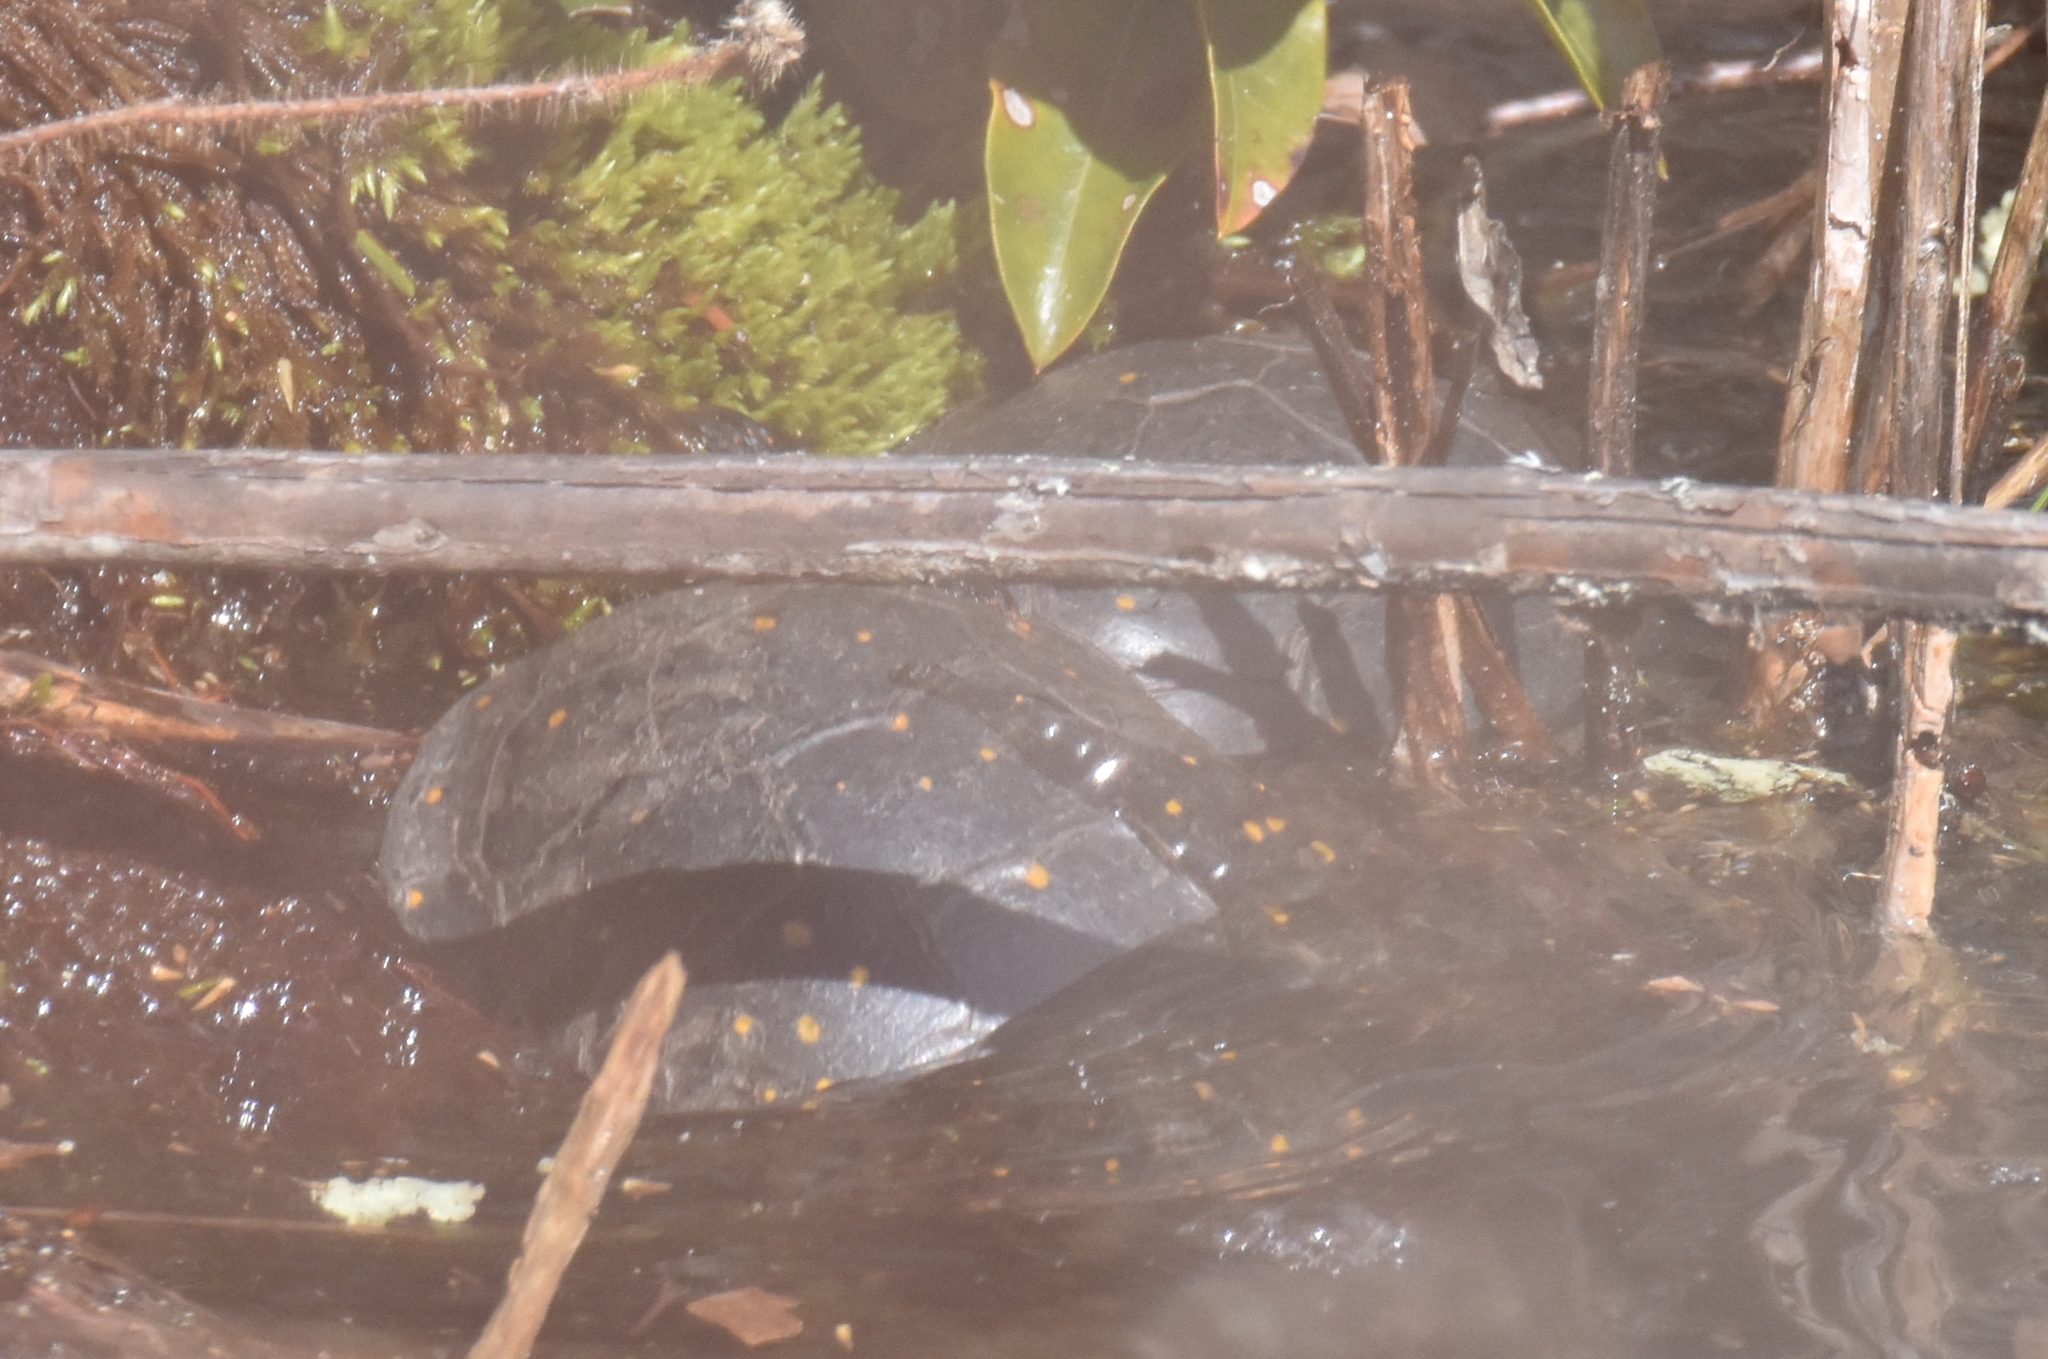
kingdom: Animalia
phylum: Chordata
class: Testudines
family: Emydidae
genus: Clemmys
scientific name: Clemmys guttata
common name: Spotted turtle
